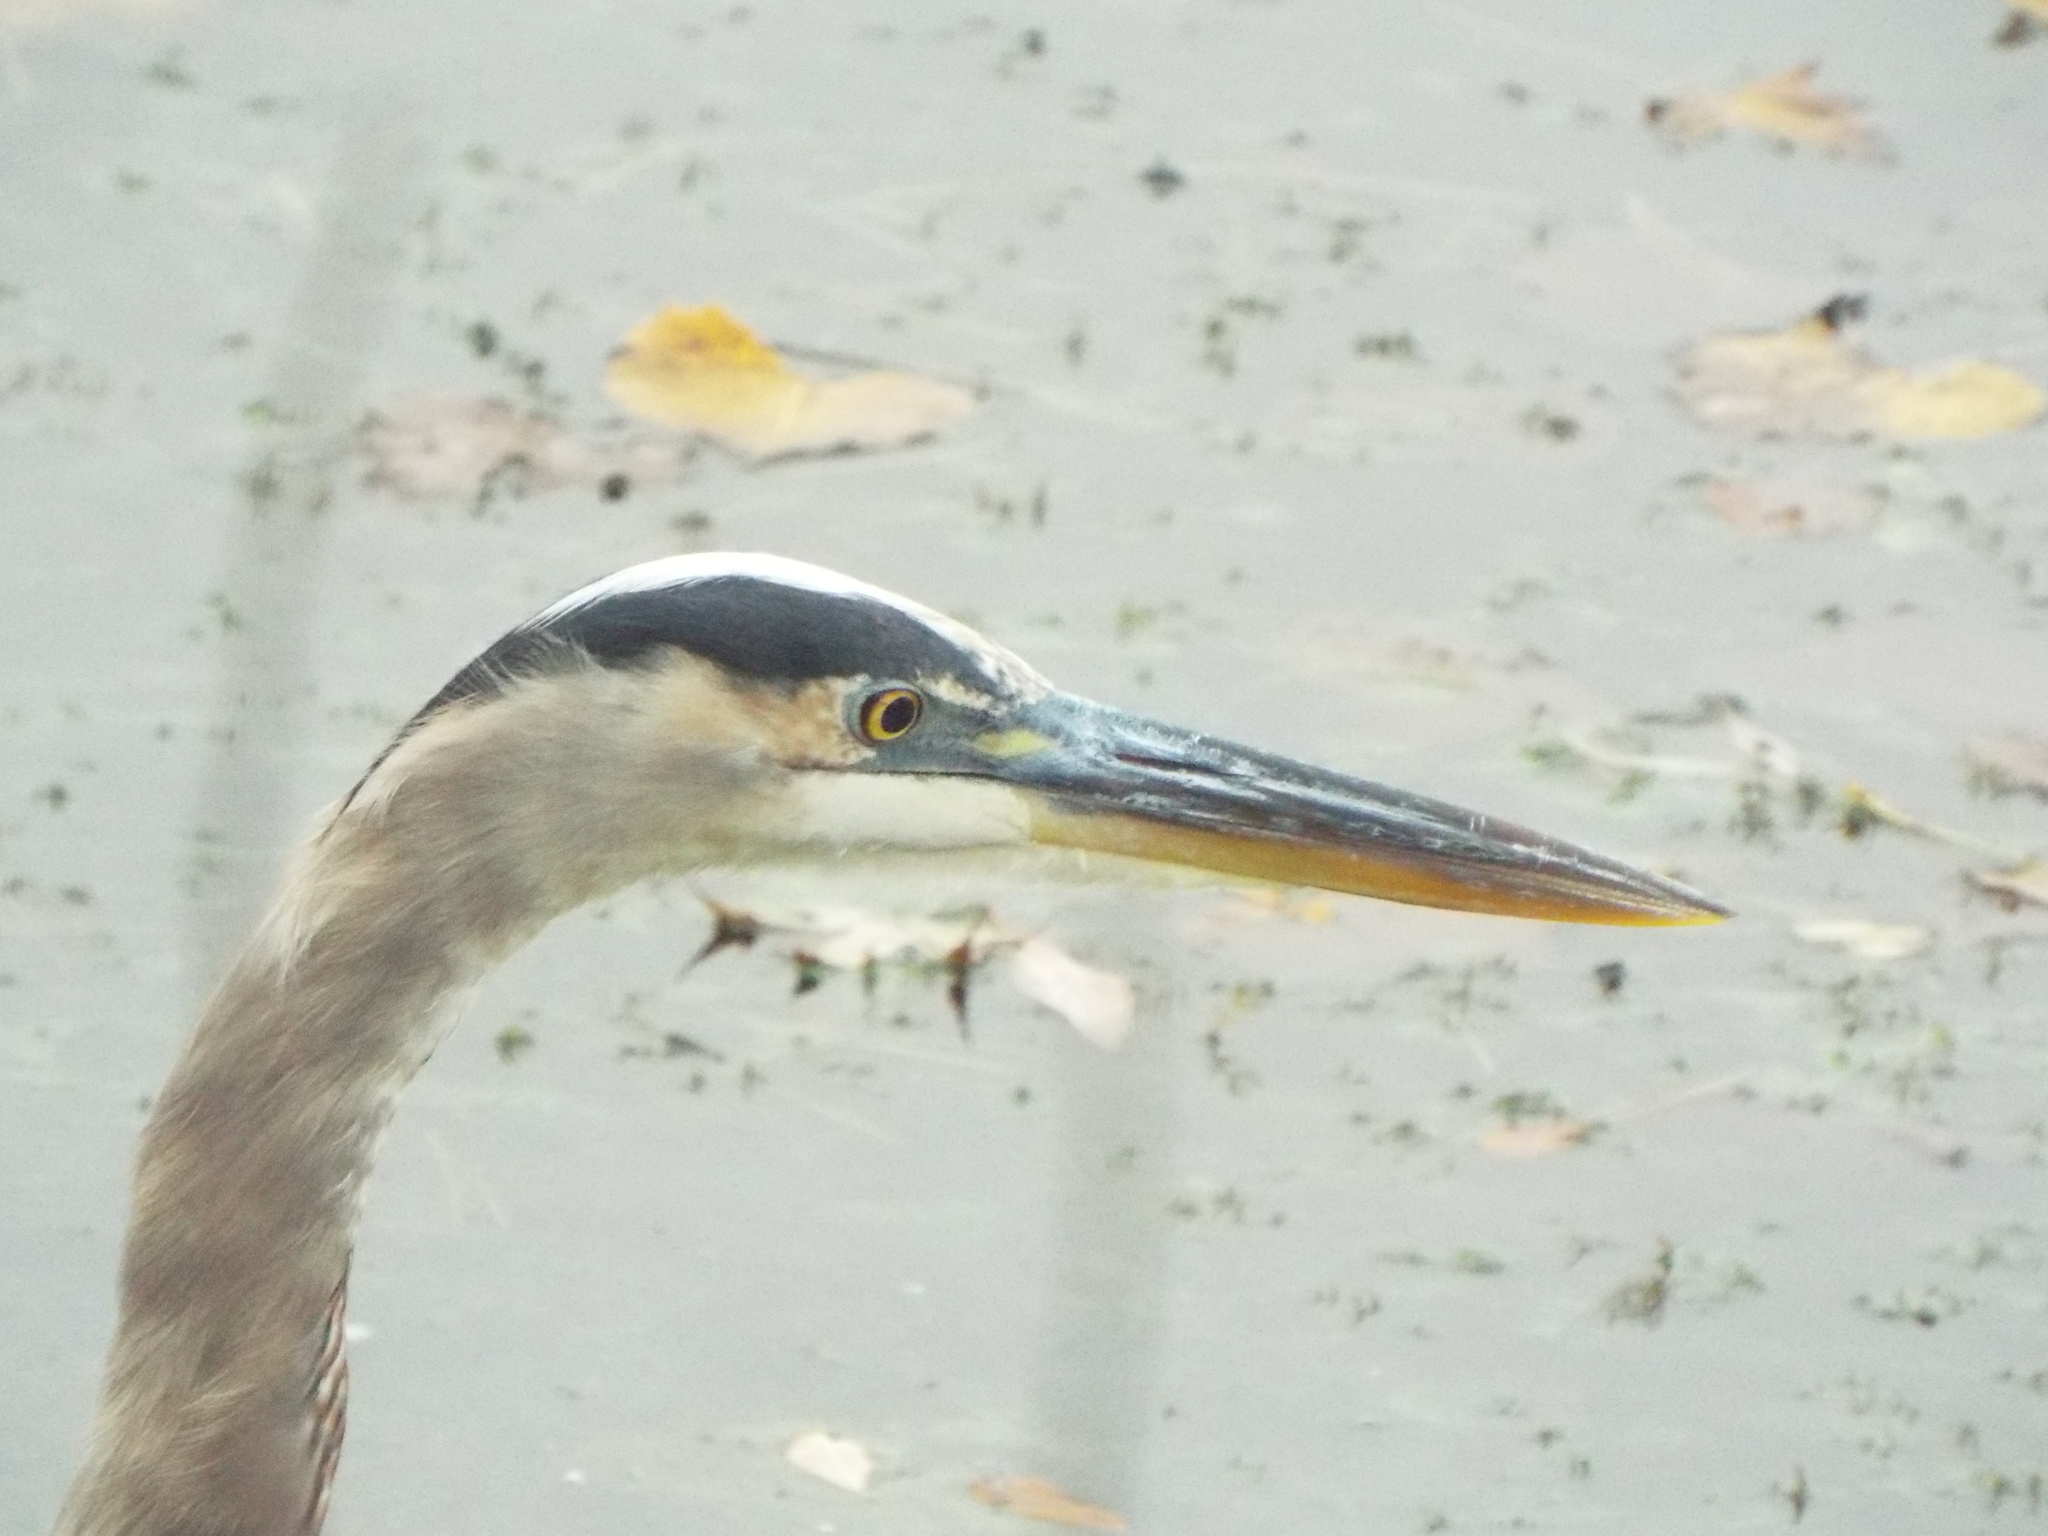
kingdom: Animalia
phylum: Chordata
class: Aves
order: Pelecaniformes
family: Ardeidae
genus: Ardea
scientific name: Ardea herodias
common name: Great blue heron
